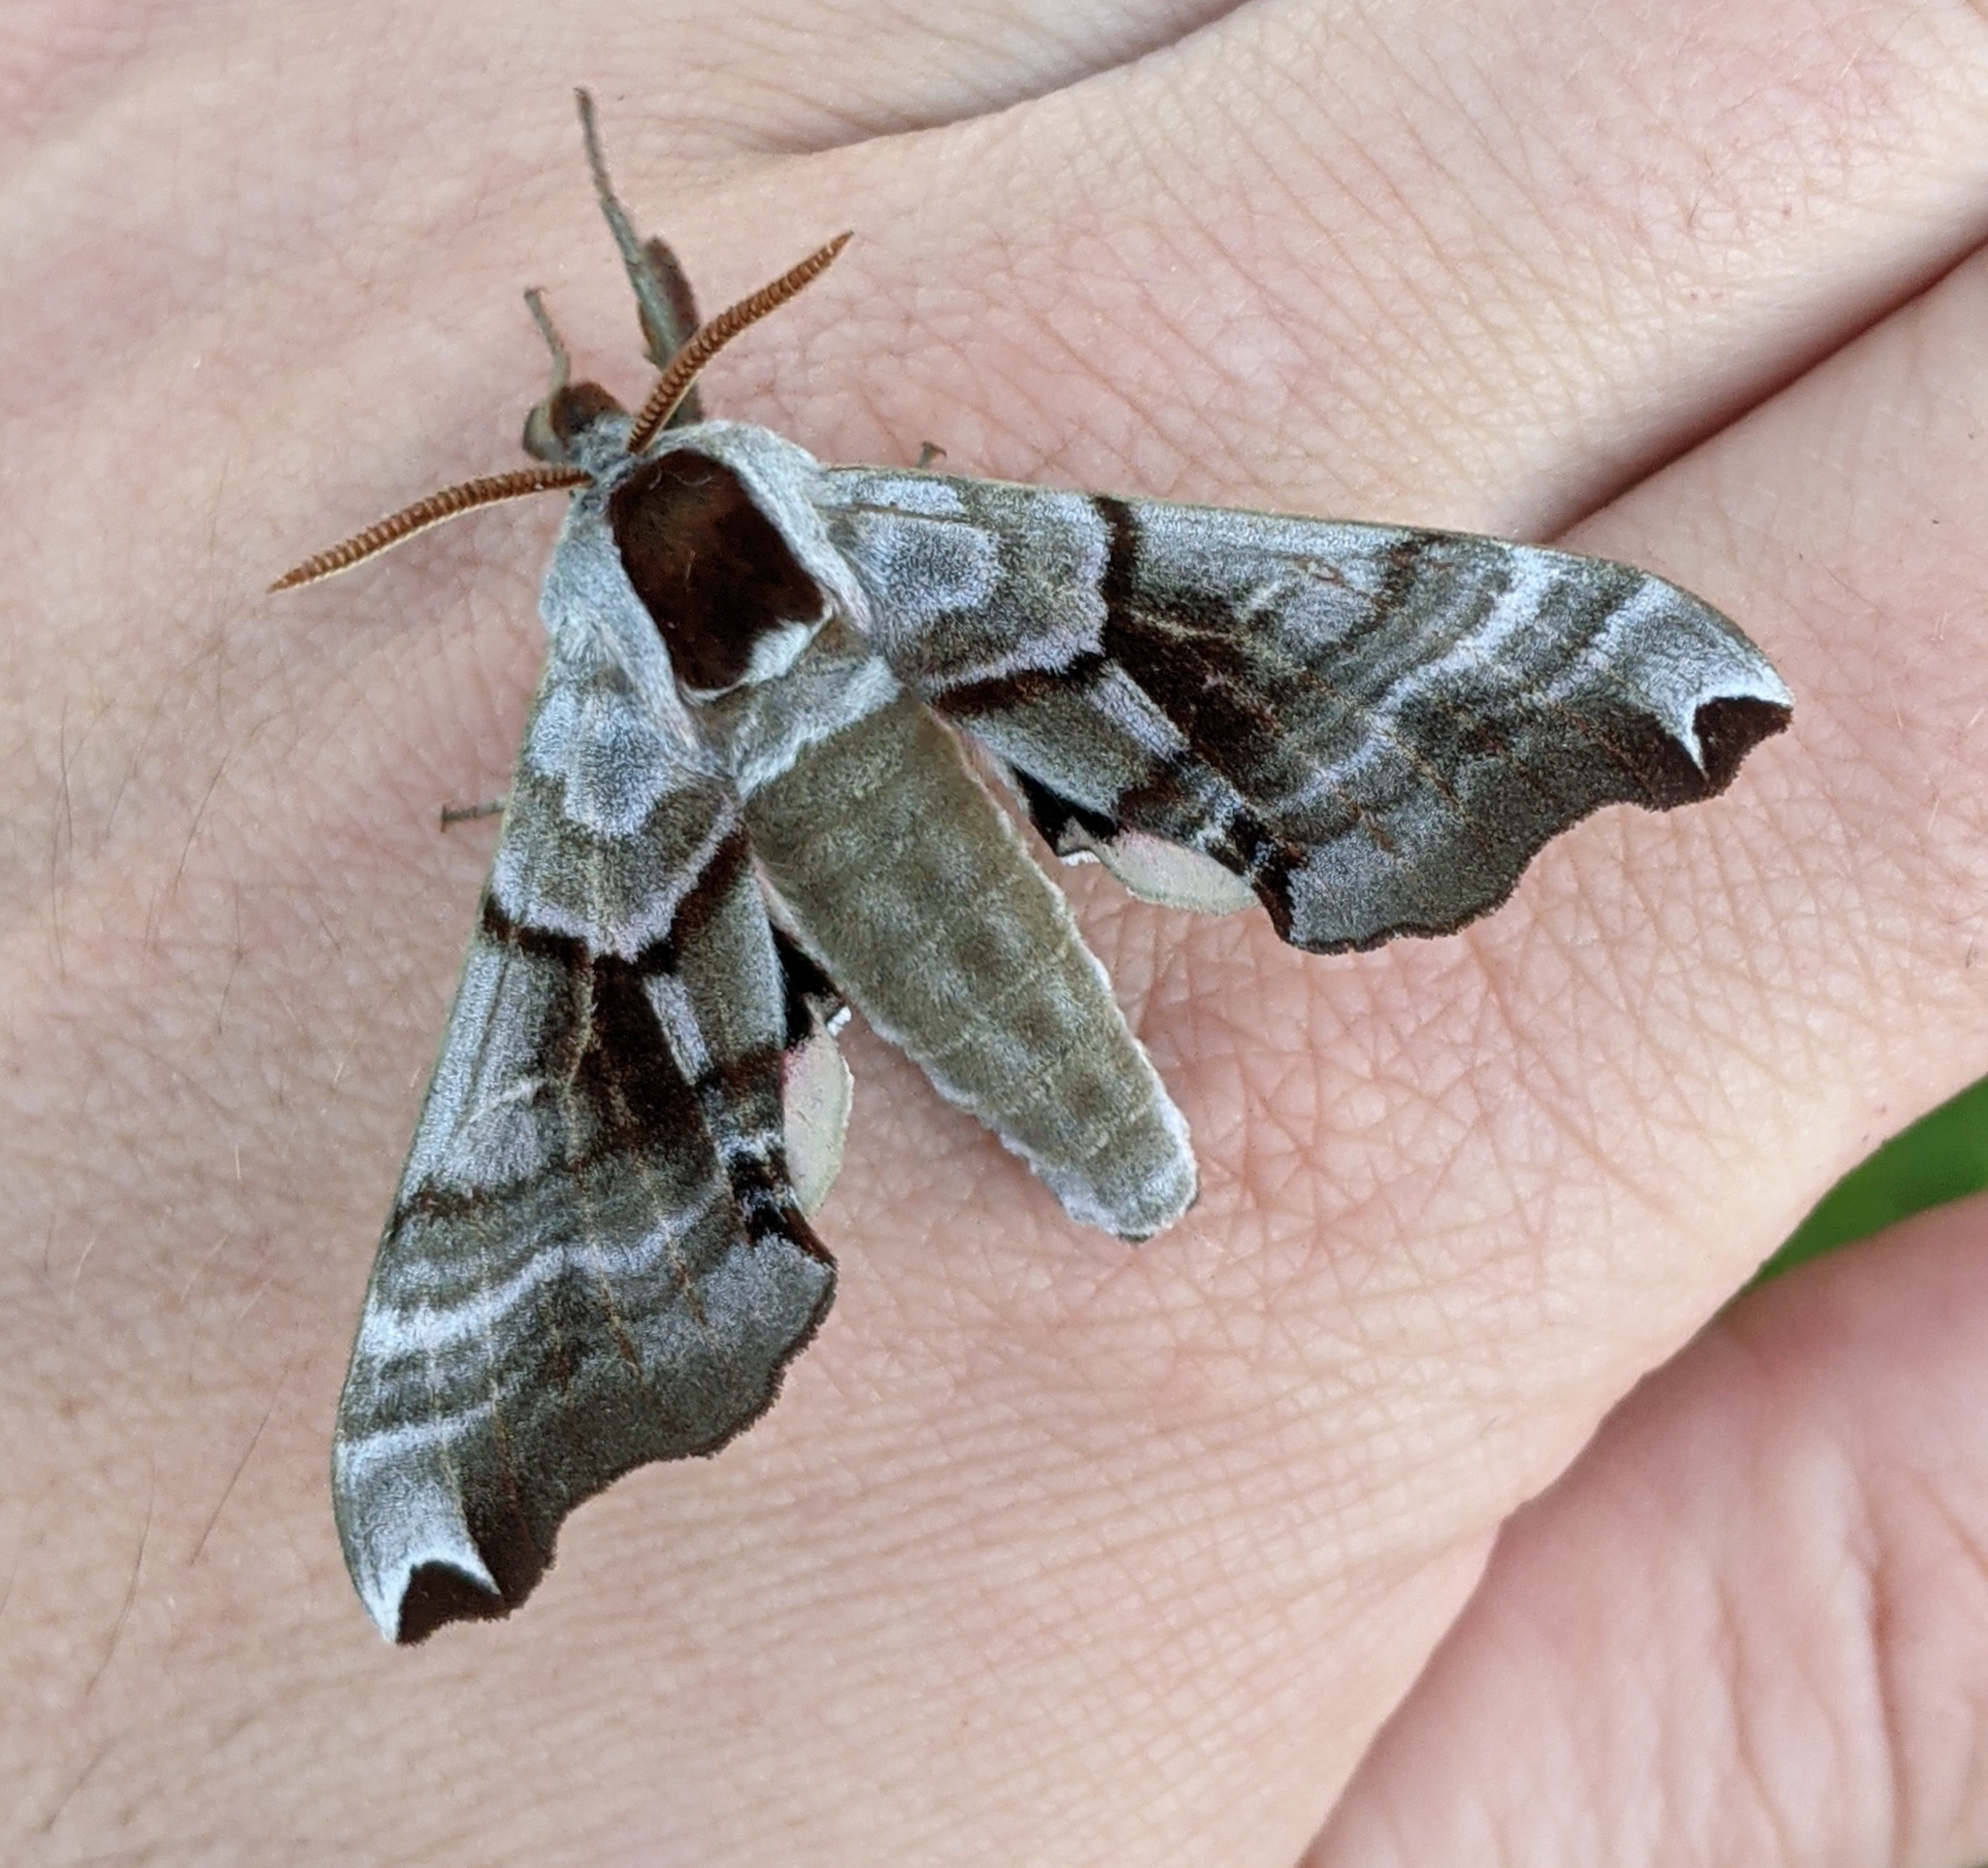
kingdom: Animalia
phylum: Arthropoda
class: Insecta
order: Lepidoptera
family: Sphingidae
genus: Smerinthus
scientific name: Smerinthus jamaicensis
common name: Twin spotted sphinx
